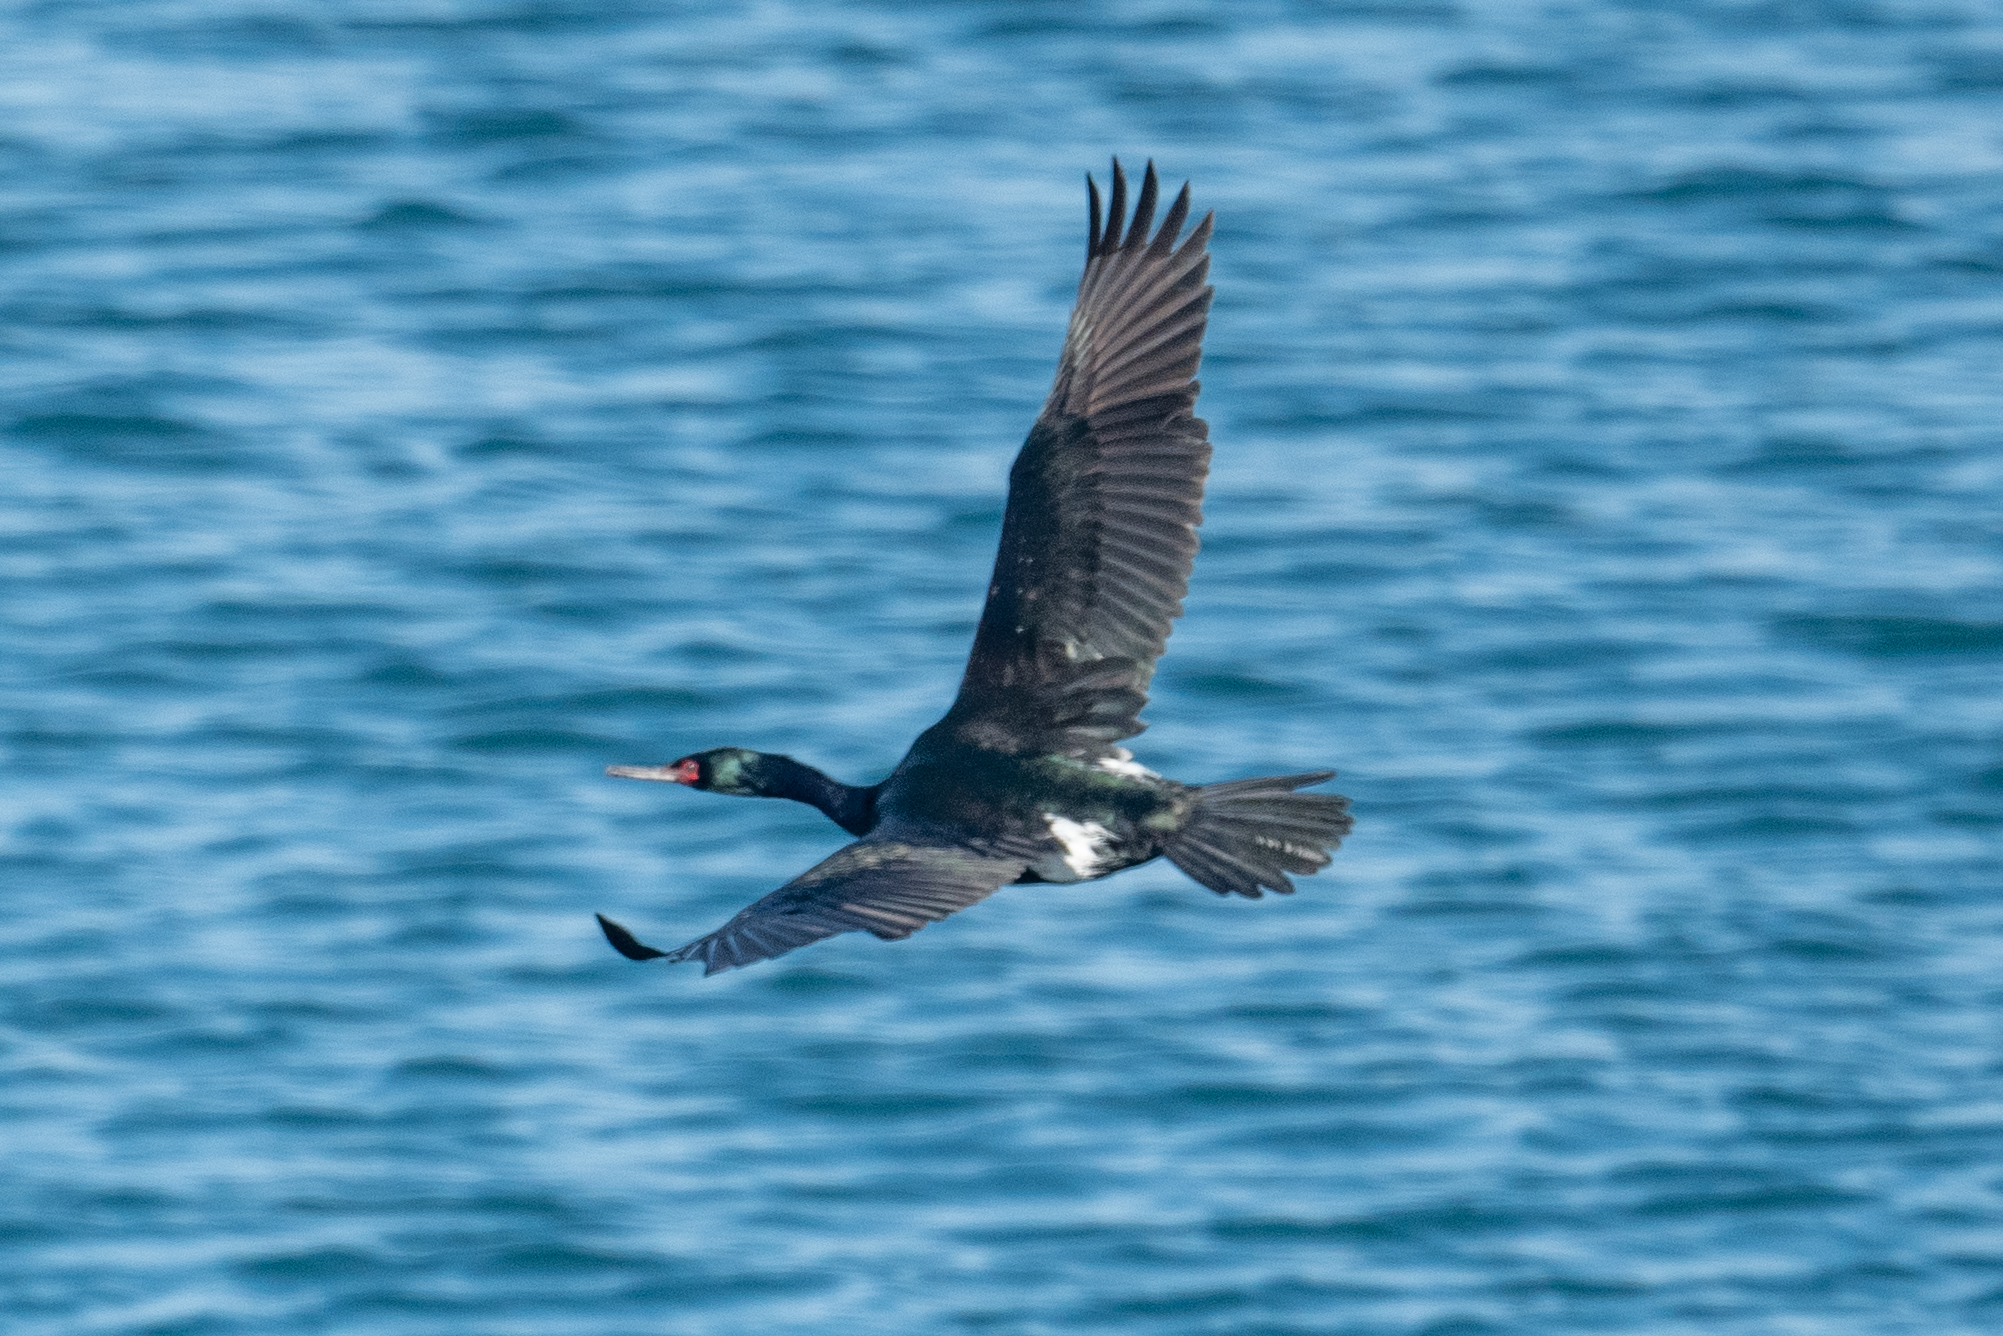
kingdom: Animalia
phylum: Chordata
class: Aves
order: Suliformes
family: Phalacrocoracidae
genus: Phalacrocorax
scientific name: Phalacrocorax pelagicus
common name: Pelagic cormorant
